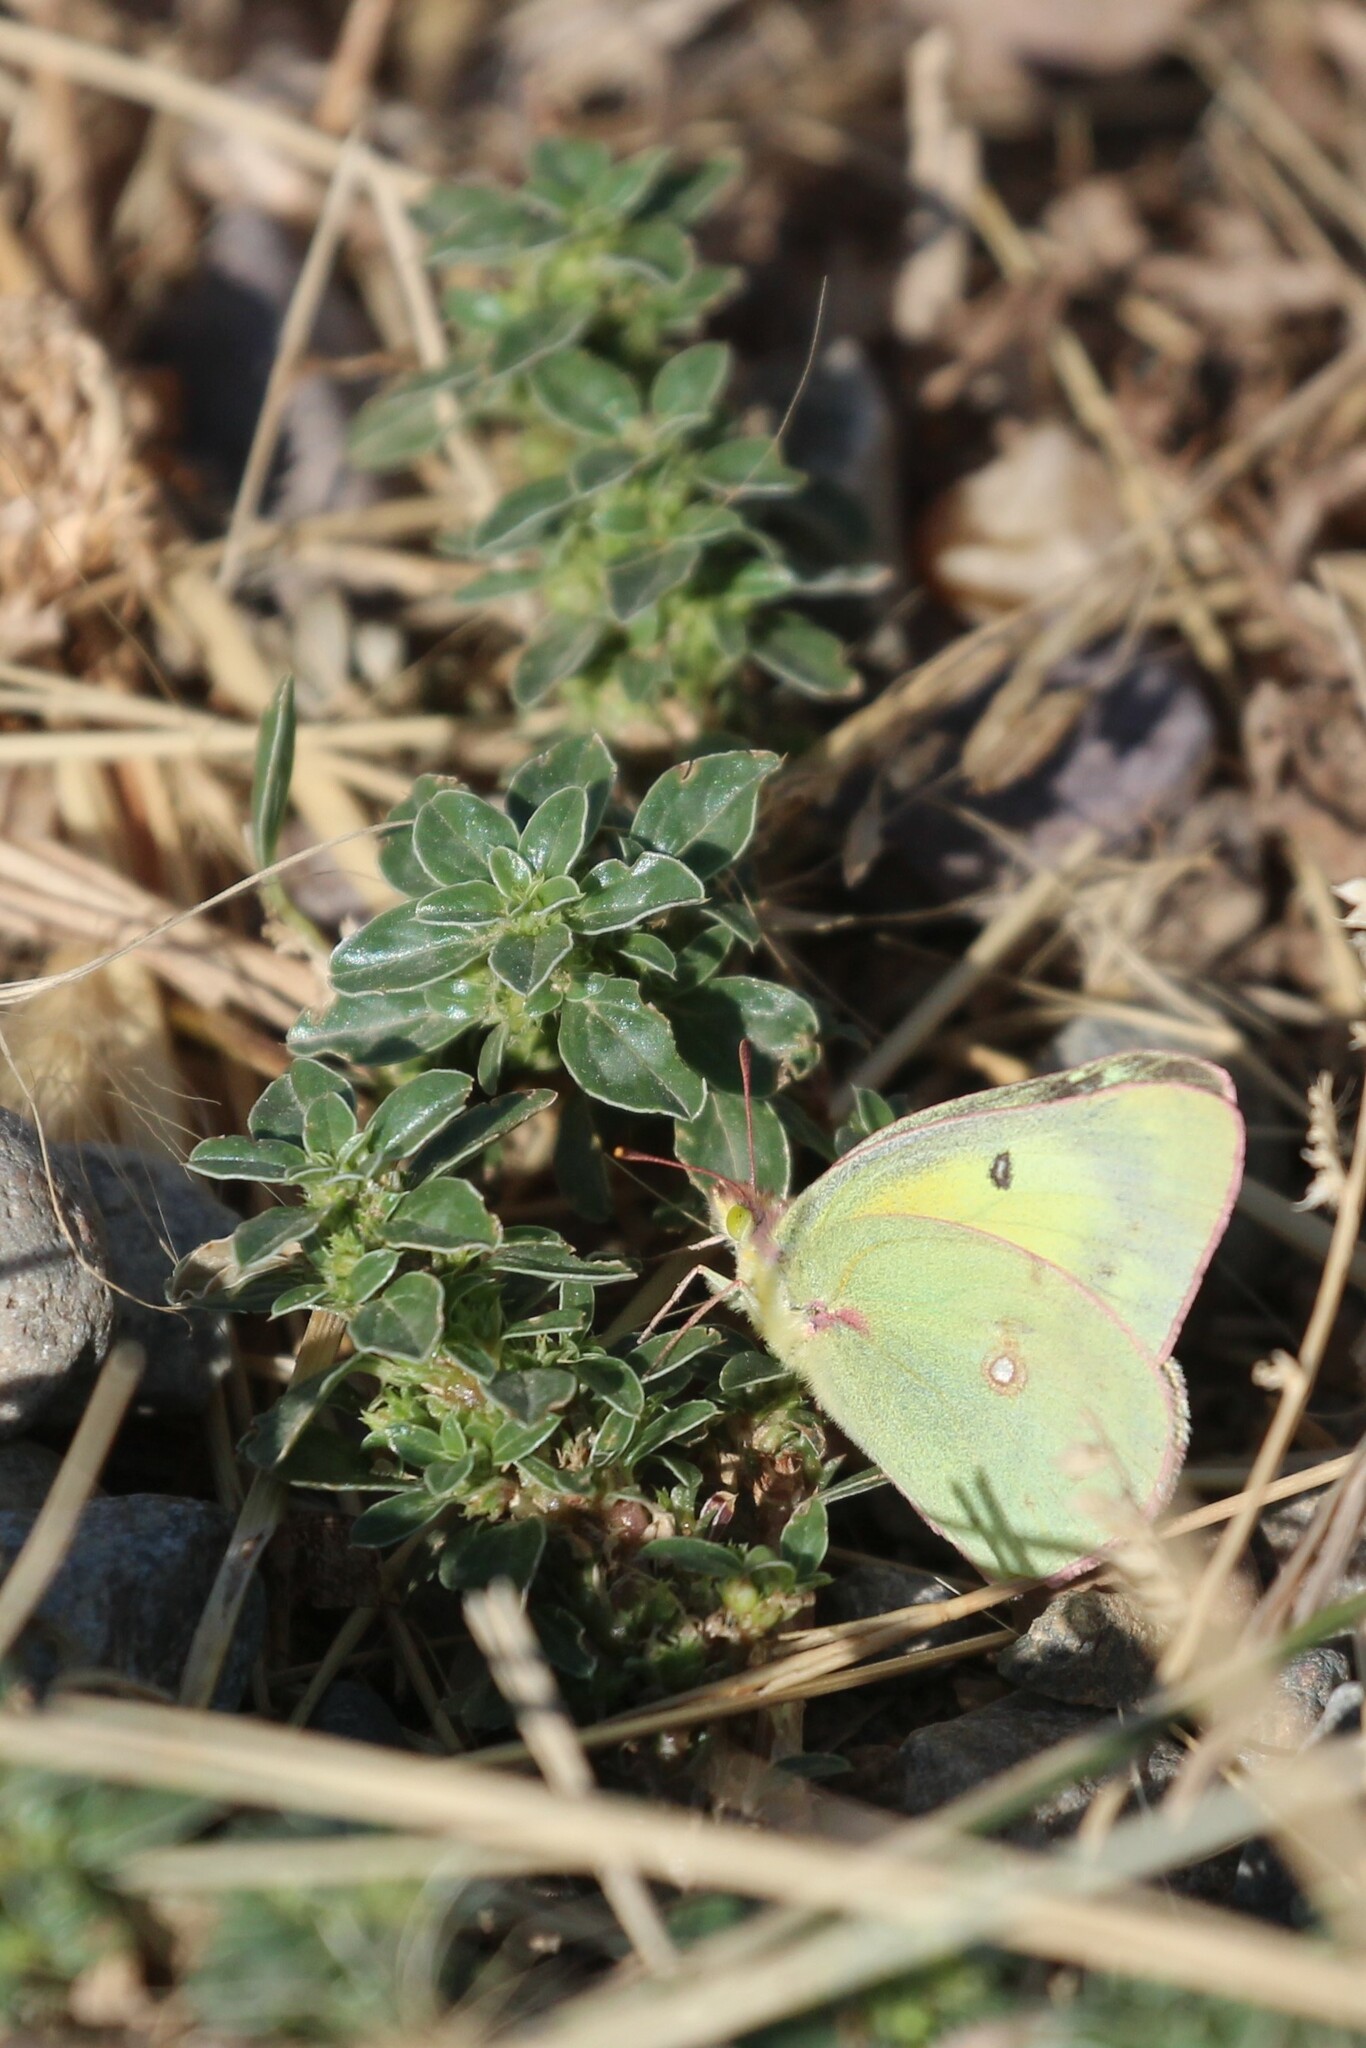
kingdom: Animalia
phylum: Arthropoda
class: Insecta
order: Lepidoptera
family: Pieridae
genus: Colias
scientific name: Colias philodice
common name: Clouded sulphur
